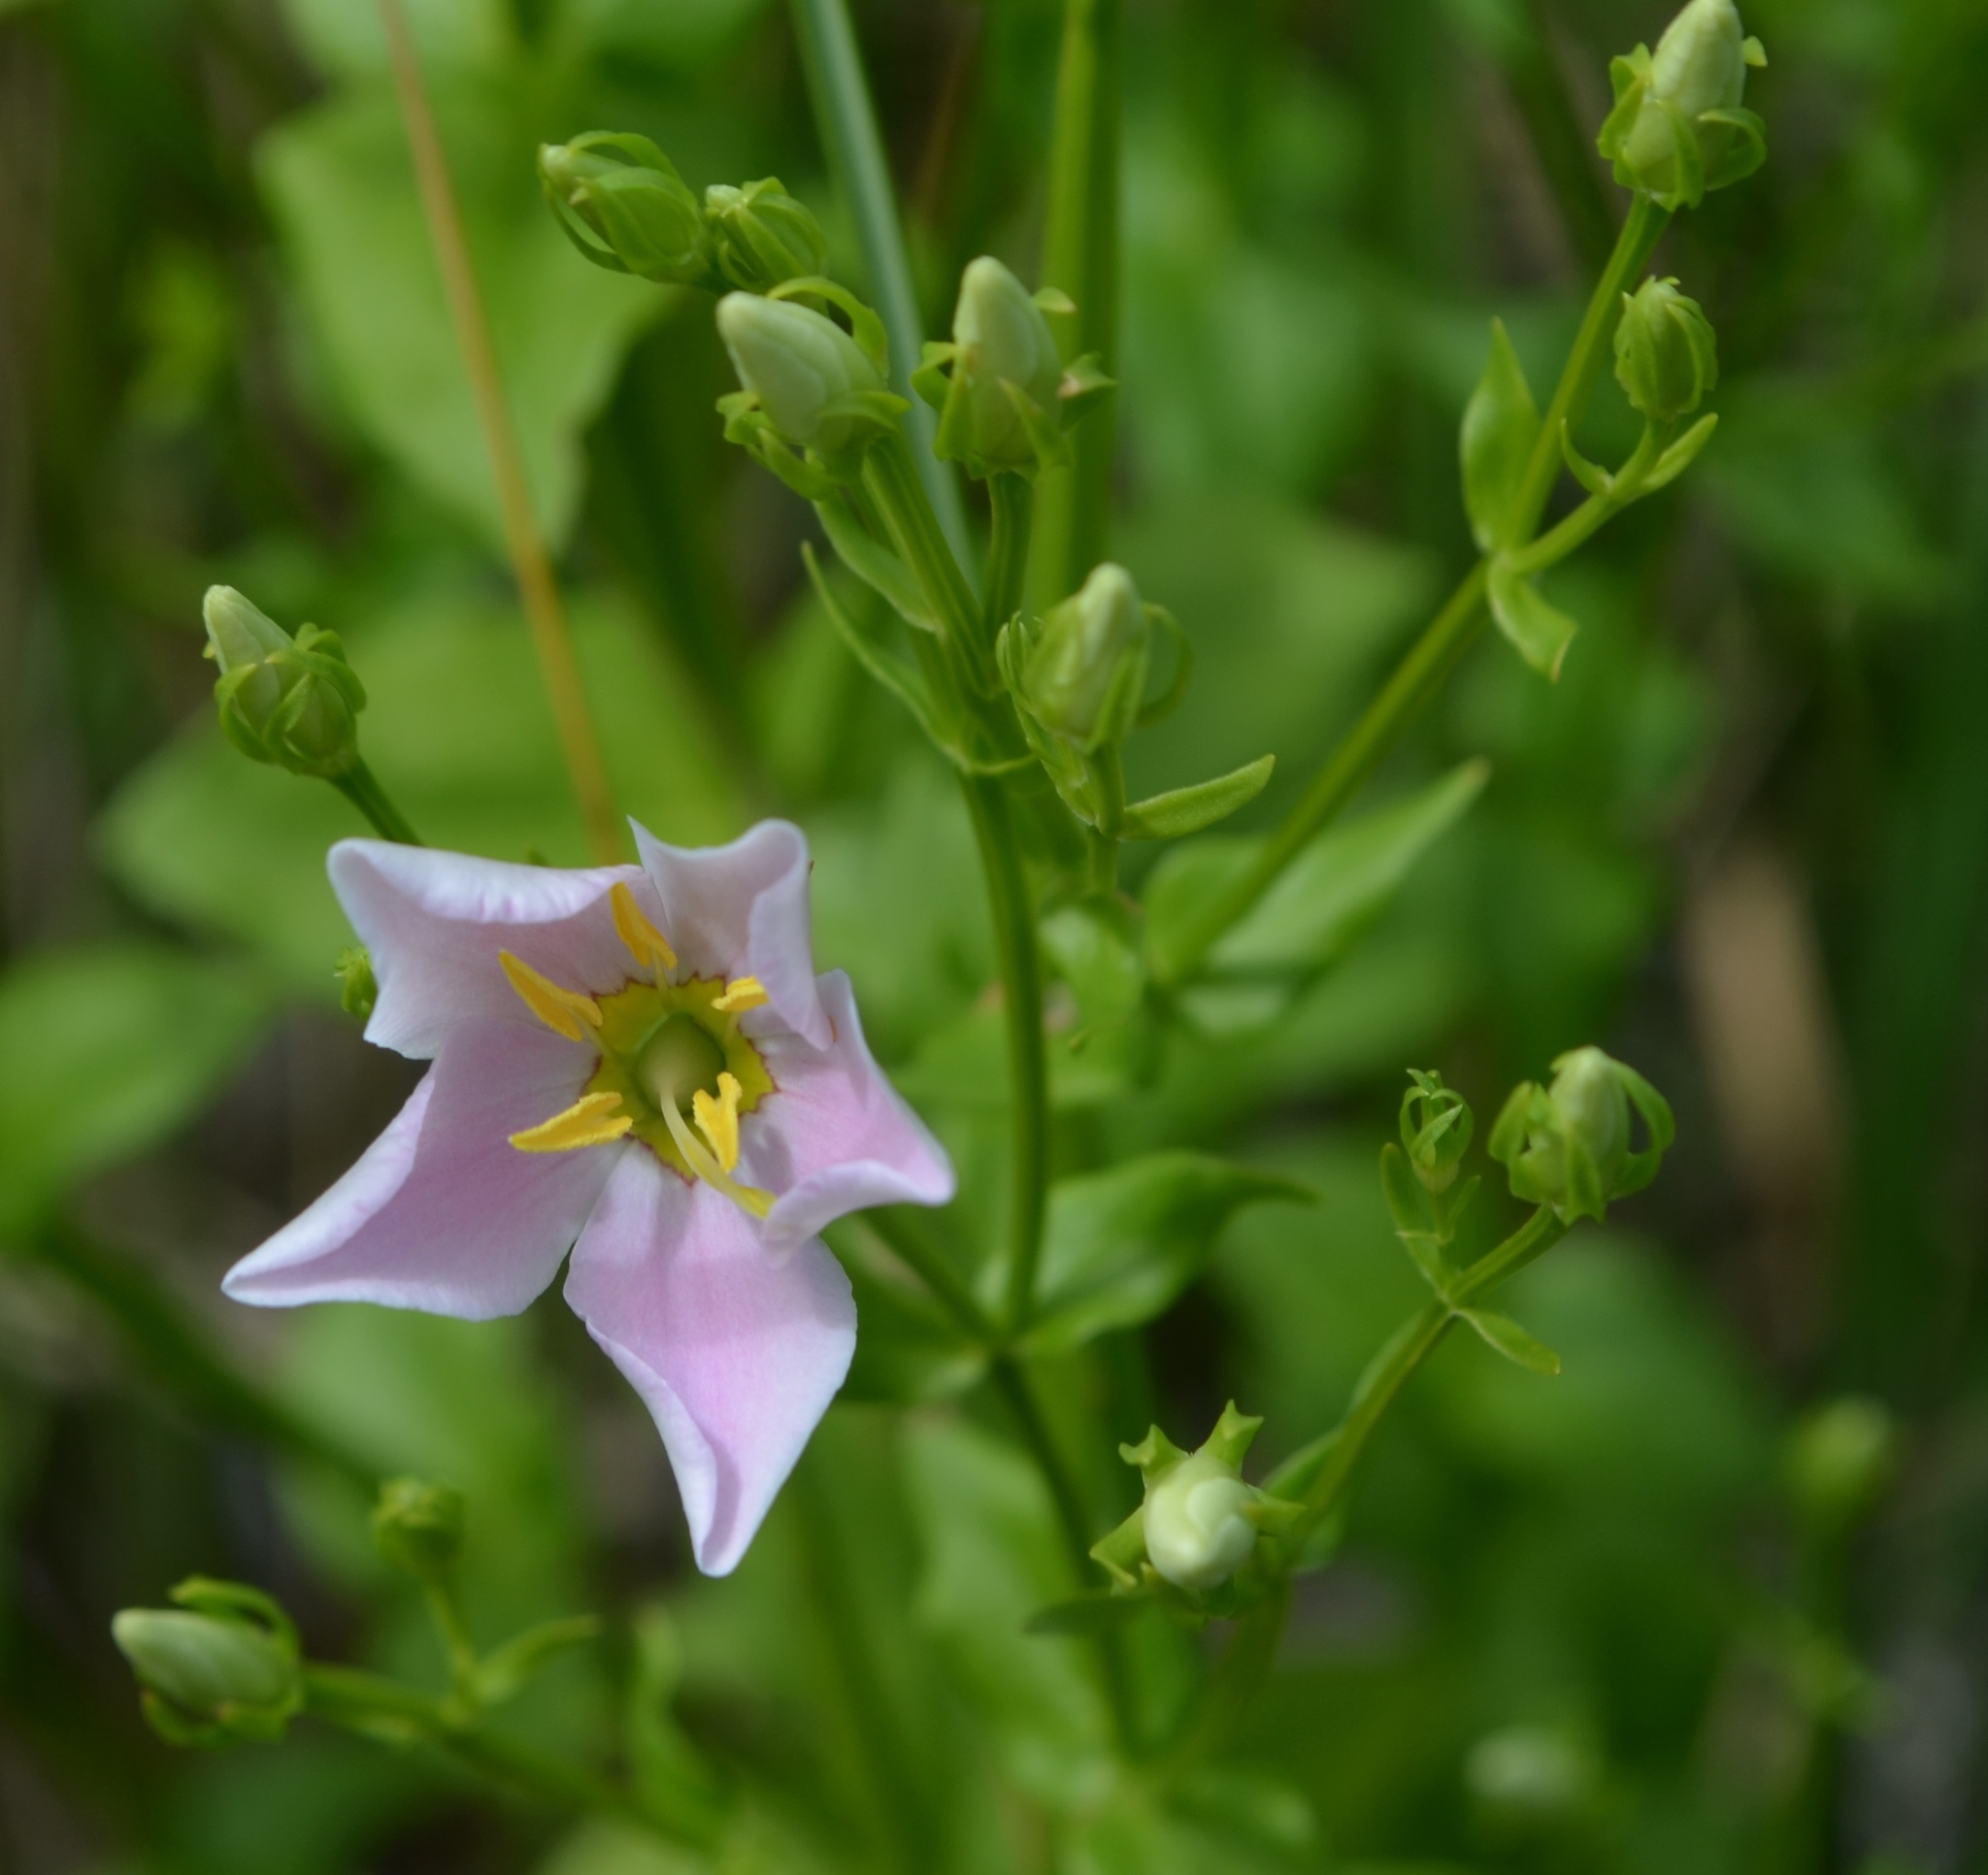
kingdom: Plantae
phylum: Tracheophyta
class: Magnoliopsida
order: Gentianales
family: Gentianaceae
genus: Sabatia
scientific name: Sabatia angularis
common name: Rose-pink
